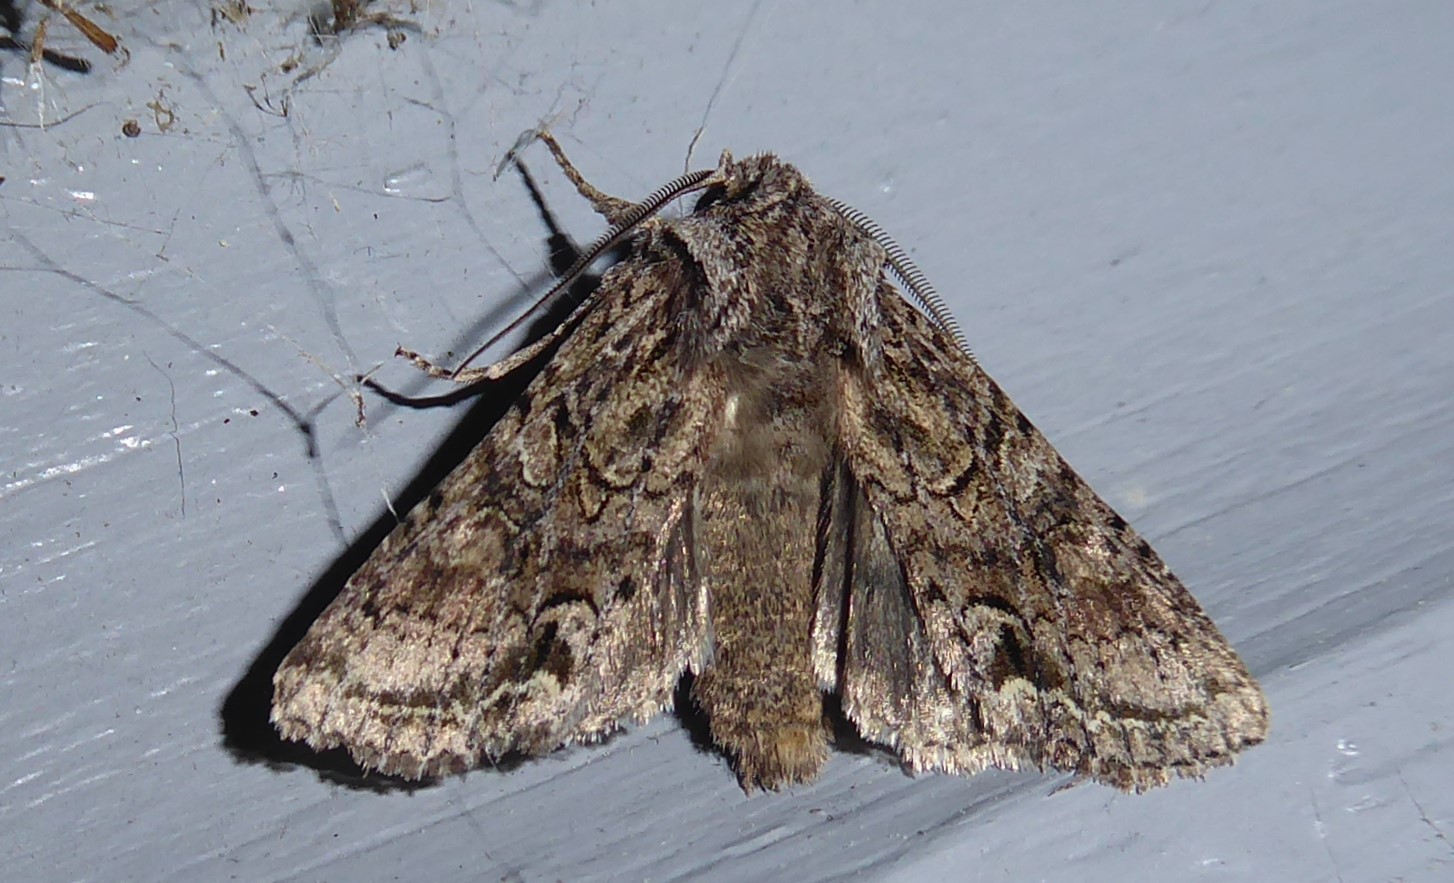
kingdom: Animalia
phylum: Arthropoda
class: Insecta
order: Lepidoptera
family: Noctuidae
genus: Ichneutica
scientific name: Ichneutica mutans
